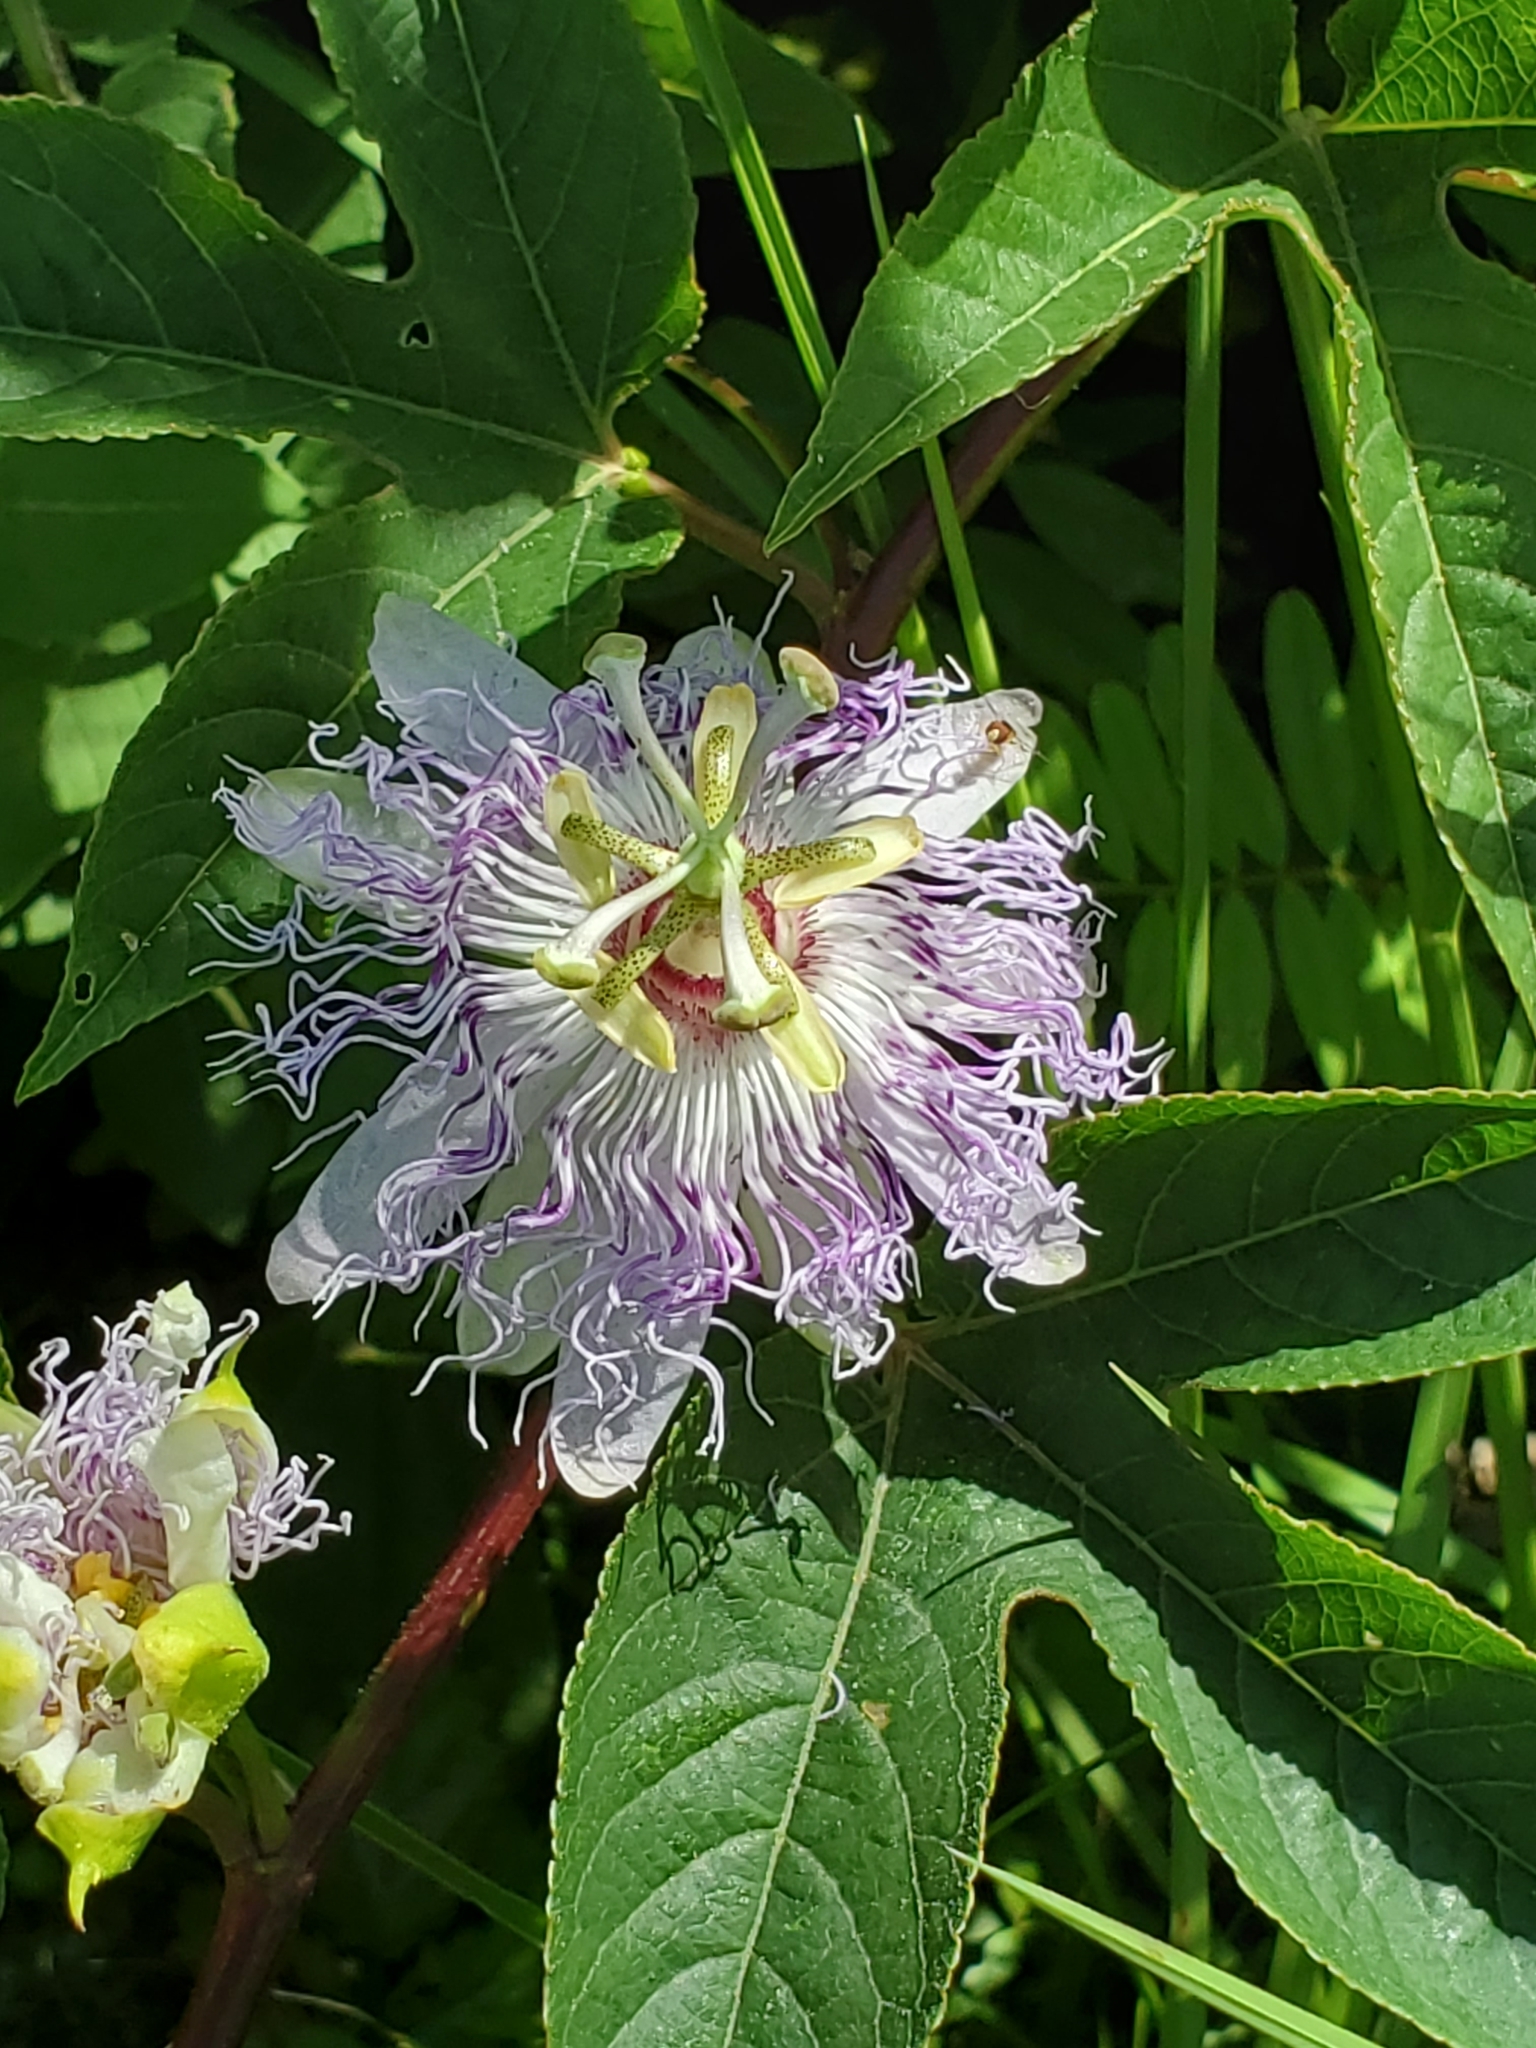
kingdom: Plantae
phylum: Tracheophyta
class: Magnoliopsida
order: Malpighiales
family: Passifloraceae
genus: Passiflora
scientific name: Passiflora incarnata
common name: Apricot-vine
